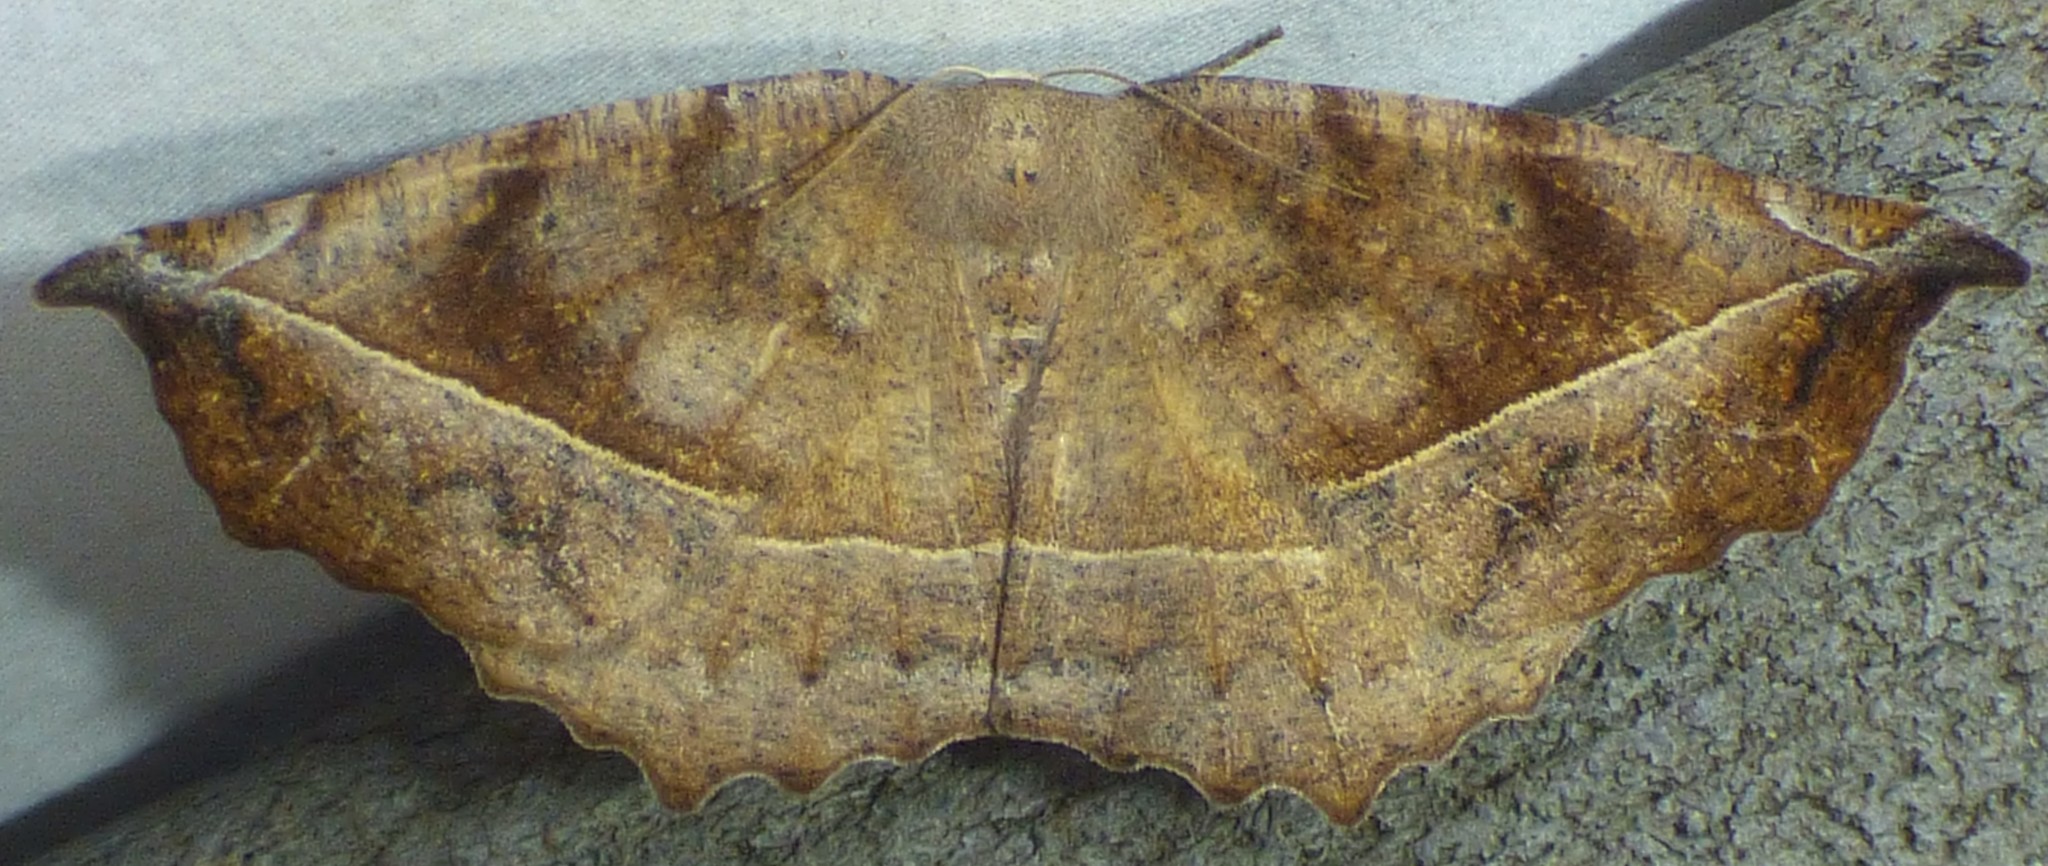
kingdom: Animalia
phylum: Arthropoda
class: Insecta
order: Lepidoptera
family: Geometridae
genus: Eutrapela
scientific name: Eutrapela clemataria
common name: Curved-toothed geometer
